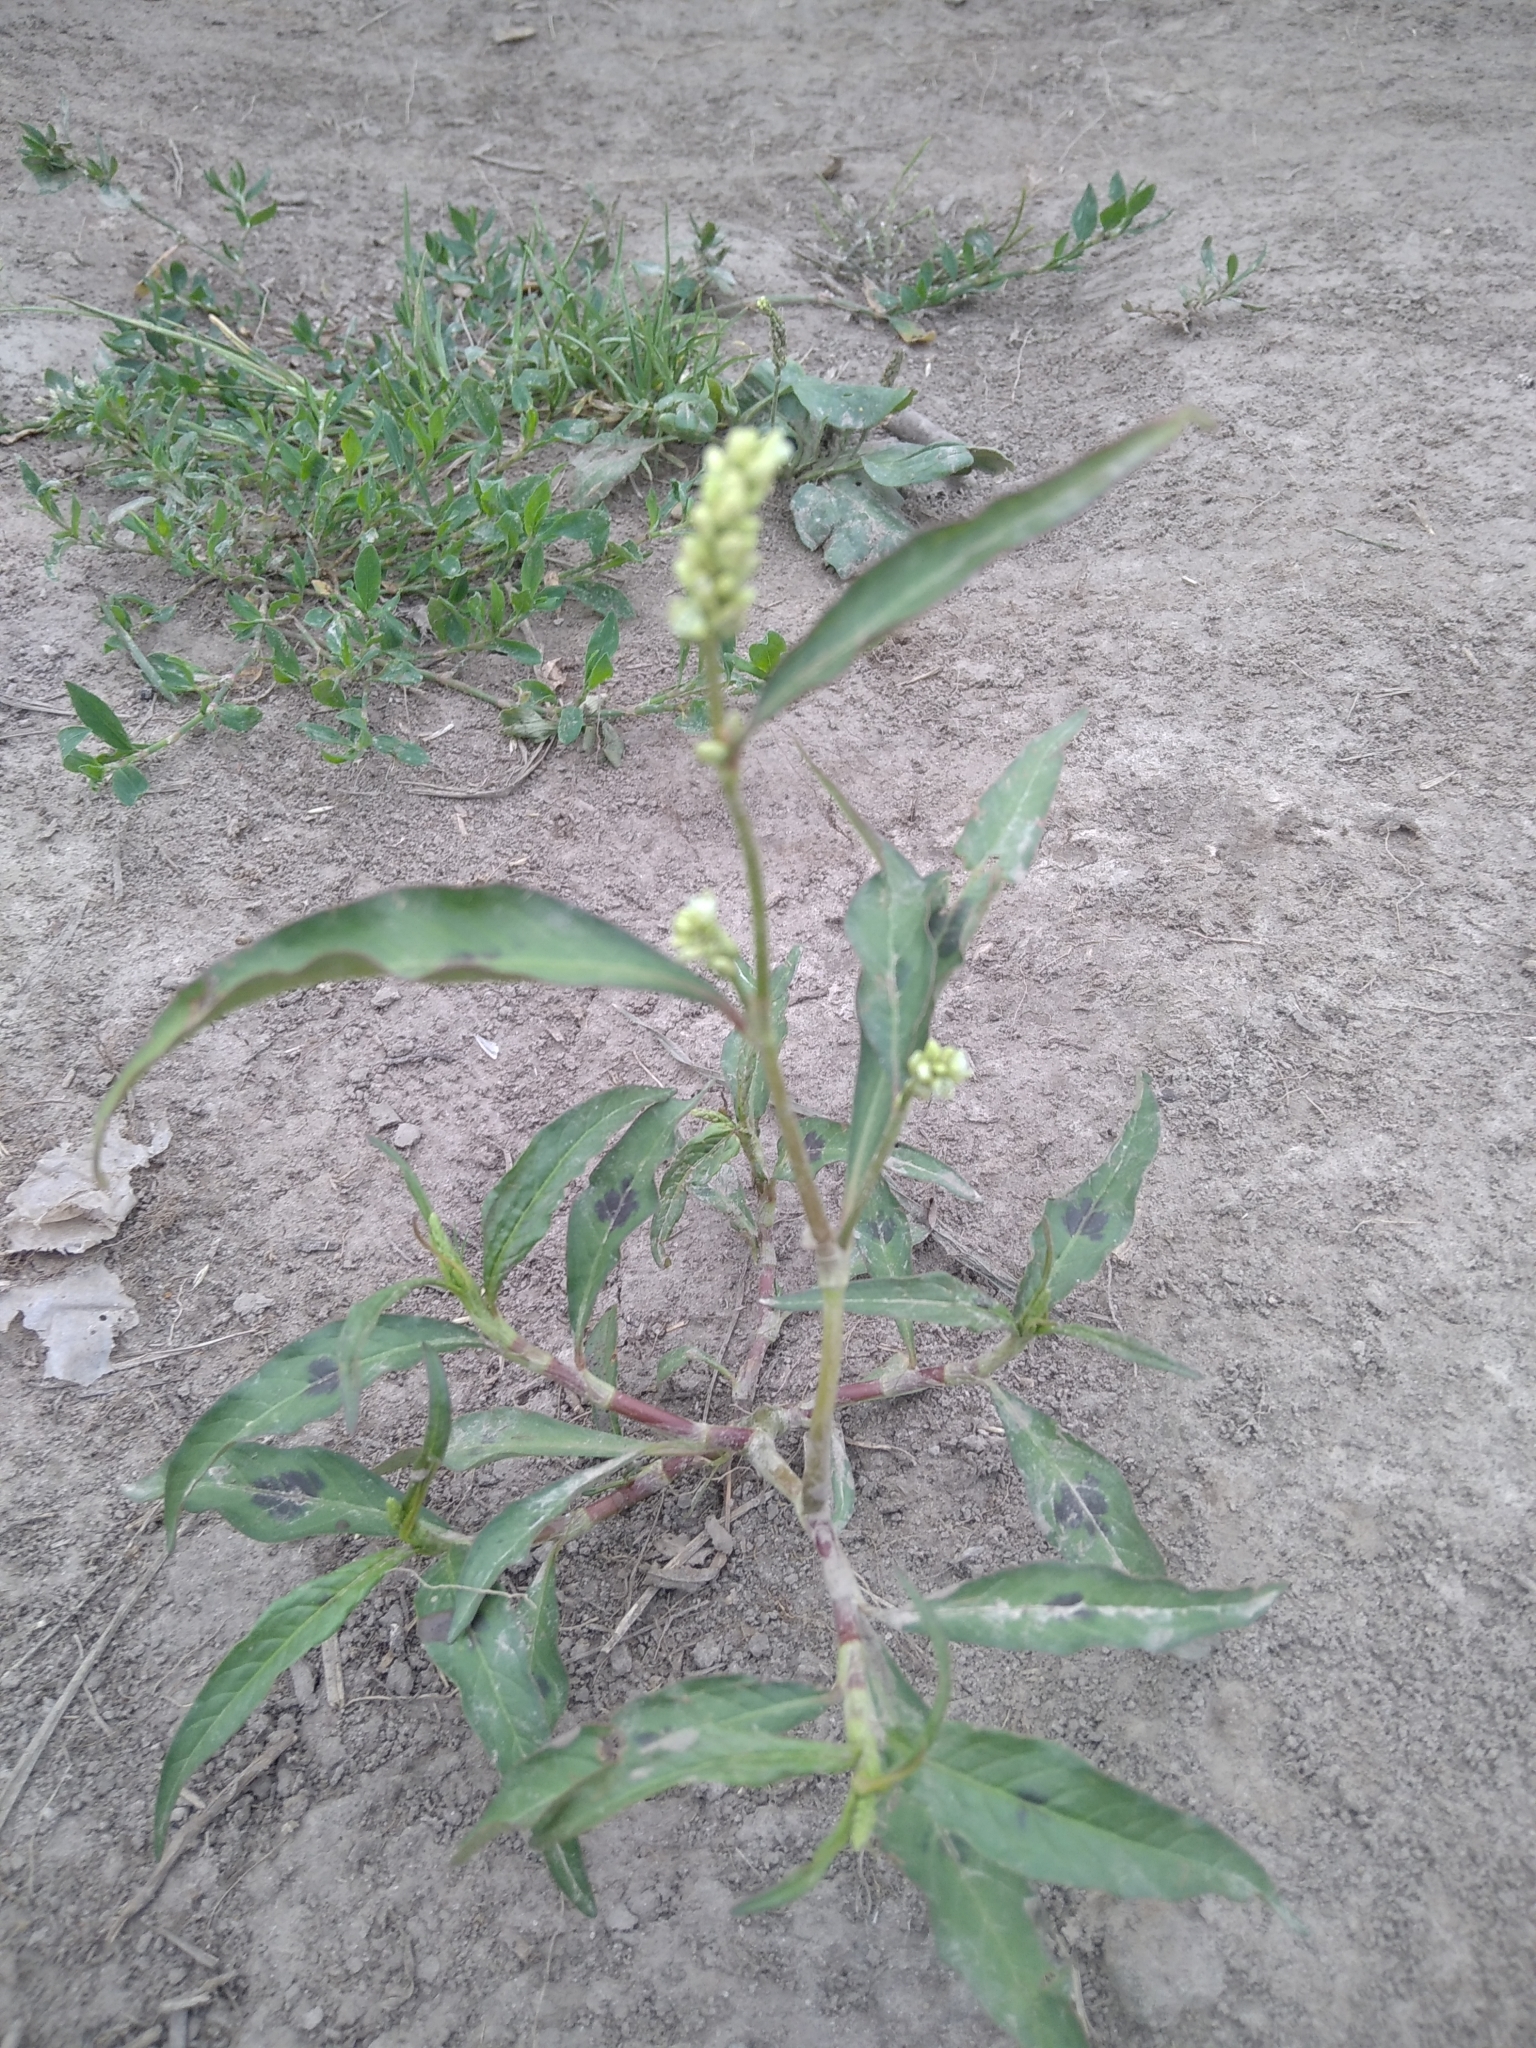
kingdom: Plantae
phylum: Tracheophyta
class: Magnoliopsida
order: Caryophyllales
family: Polygonaceae
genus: Persicaria
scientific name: Persicaria maculosa
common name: Redshank
